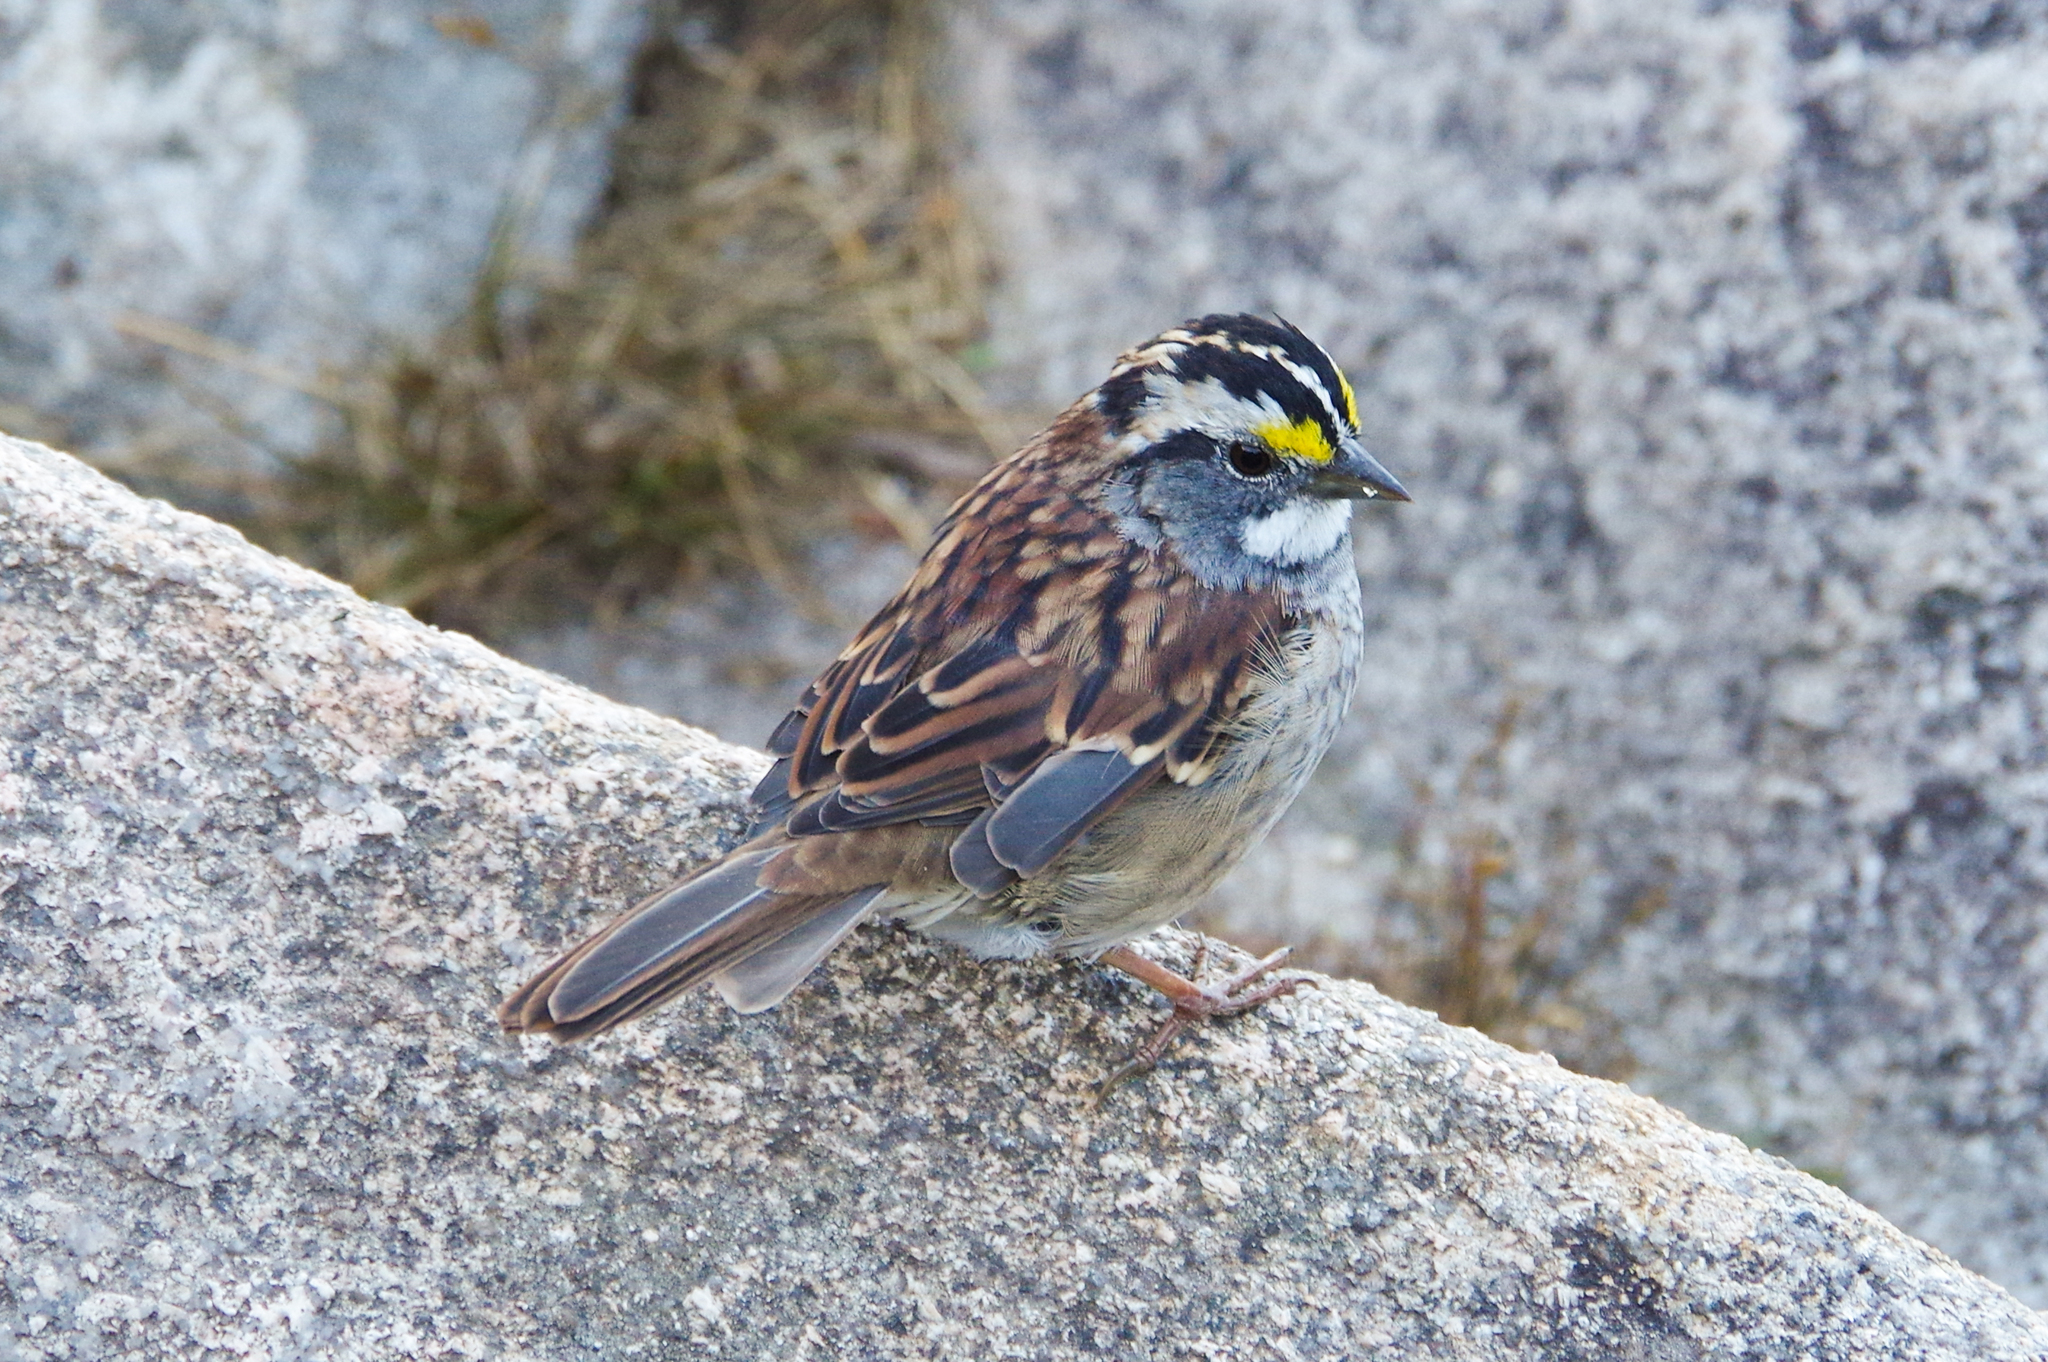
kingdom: Animalia
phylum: Chordata
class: Aves
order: Passeriformes
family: Passerellidae
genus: Zonotrichia
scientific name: Zonotrichia albicollis
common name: White-throated sparrow
